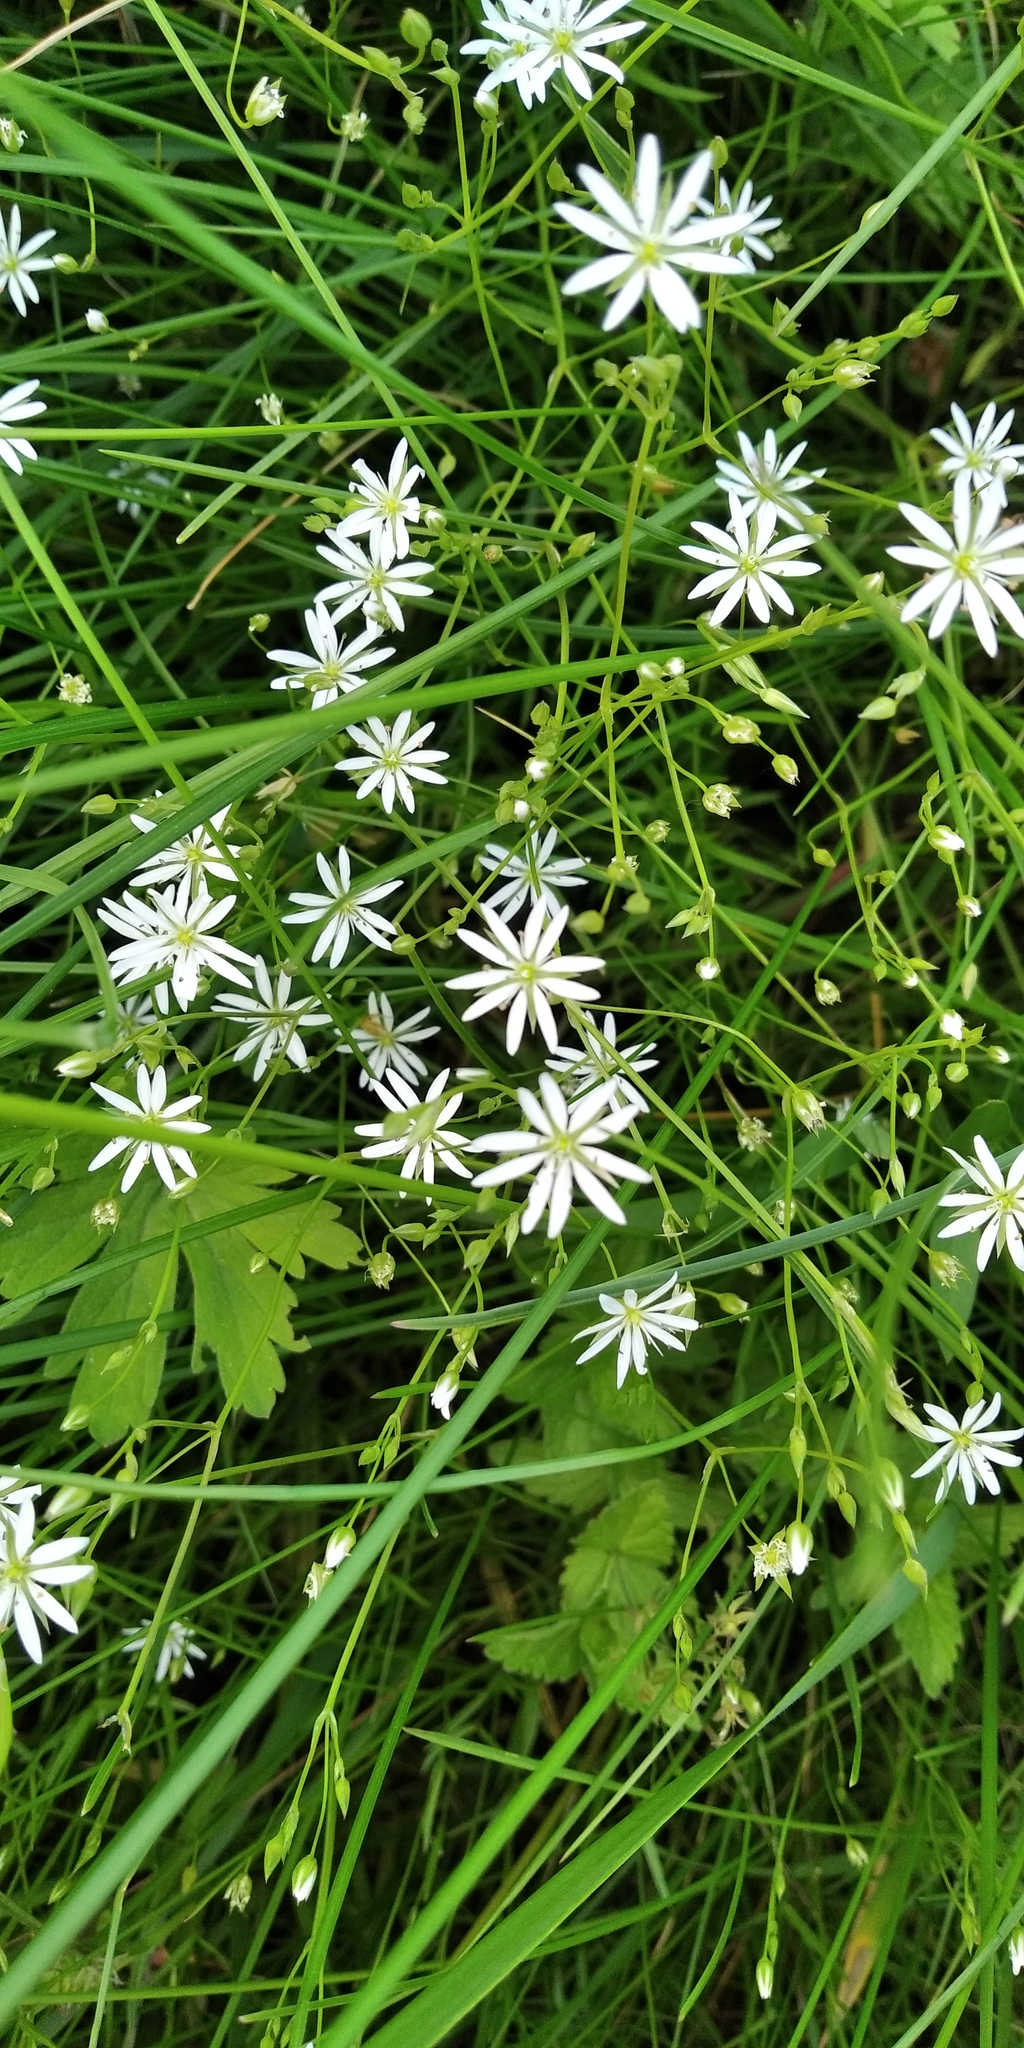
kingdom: Plantae
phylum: Tracheophyta
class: Magnoliopsida
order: Caryophyllales
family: Caryophyllaceae
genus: Stellaria
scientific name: Stellaria graminea
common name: Grass-like starwort
